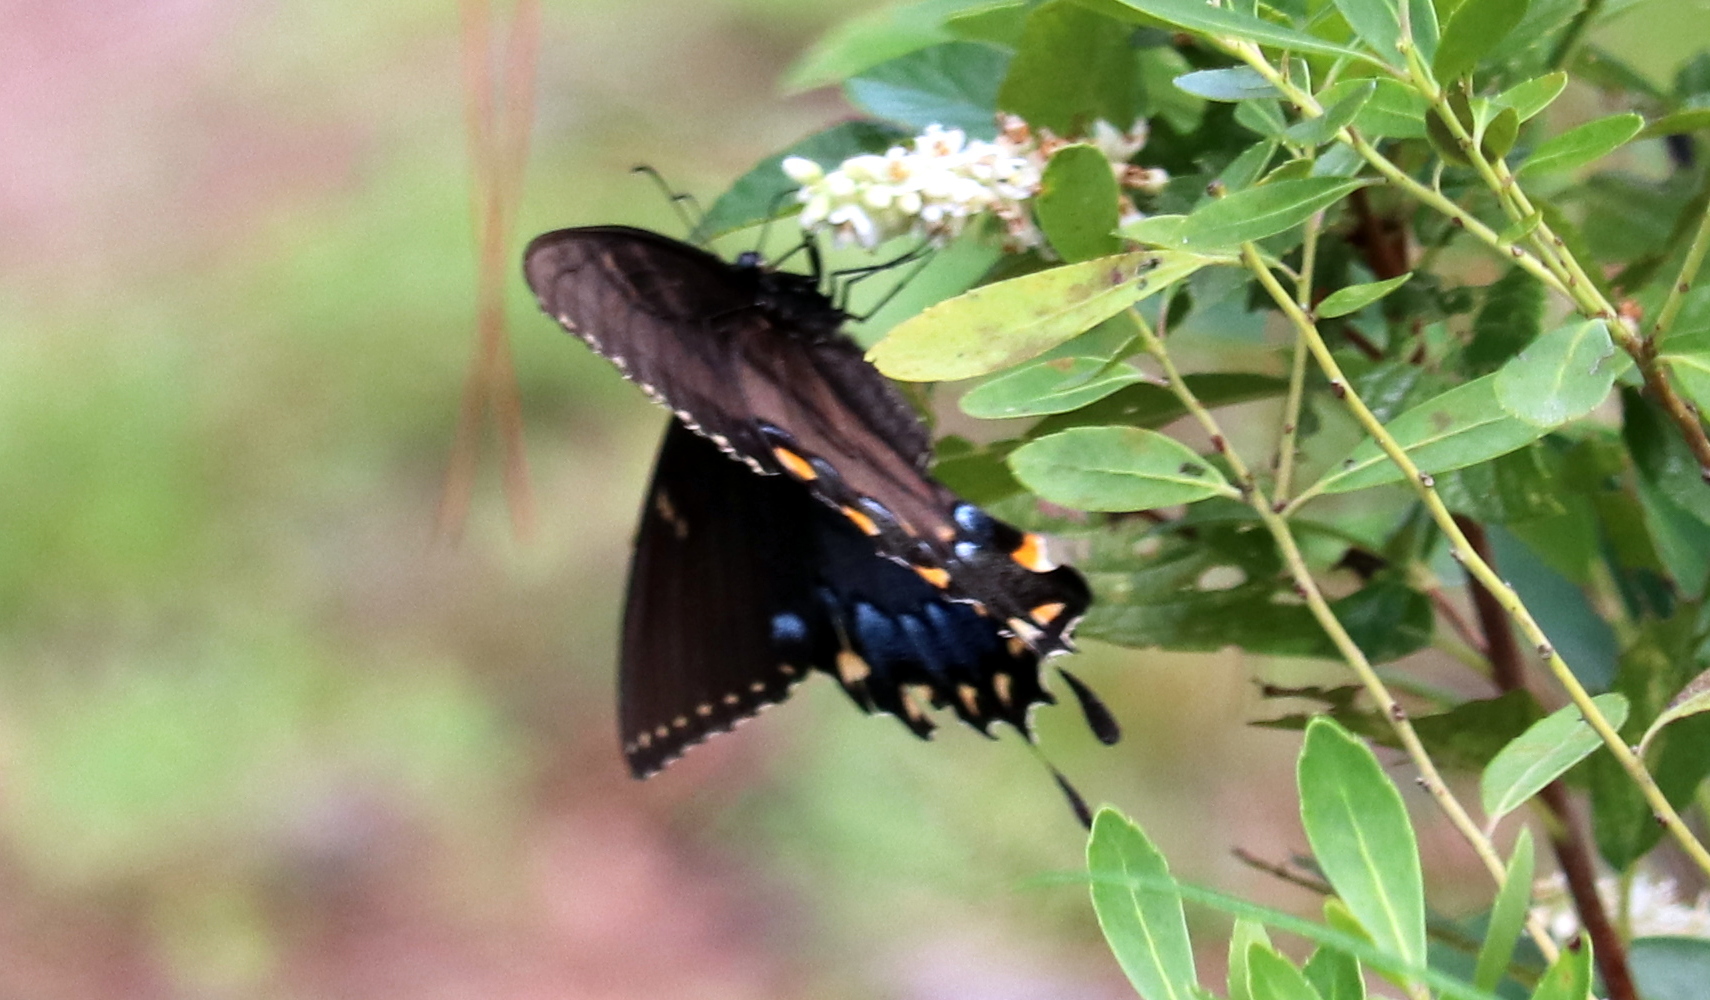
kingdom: Animalia
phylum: Arthropoda
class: Insecta
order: Lepidoptera
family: Papilionidae
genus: Papilio
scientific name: Papilio glaucus
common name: Tiger swallowtail
